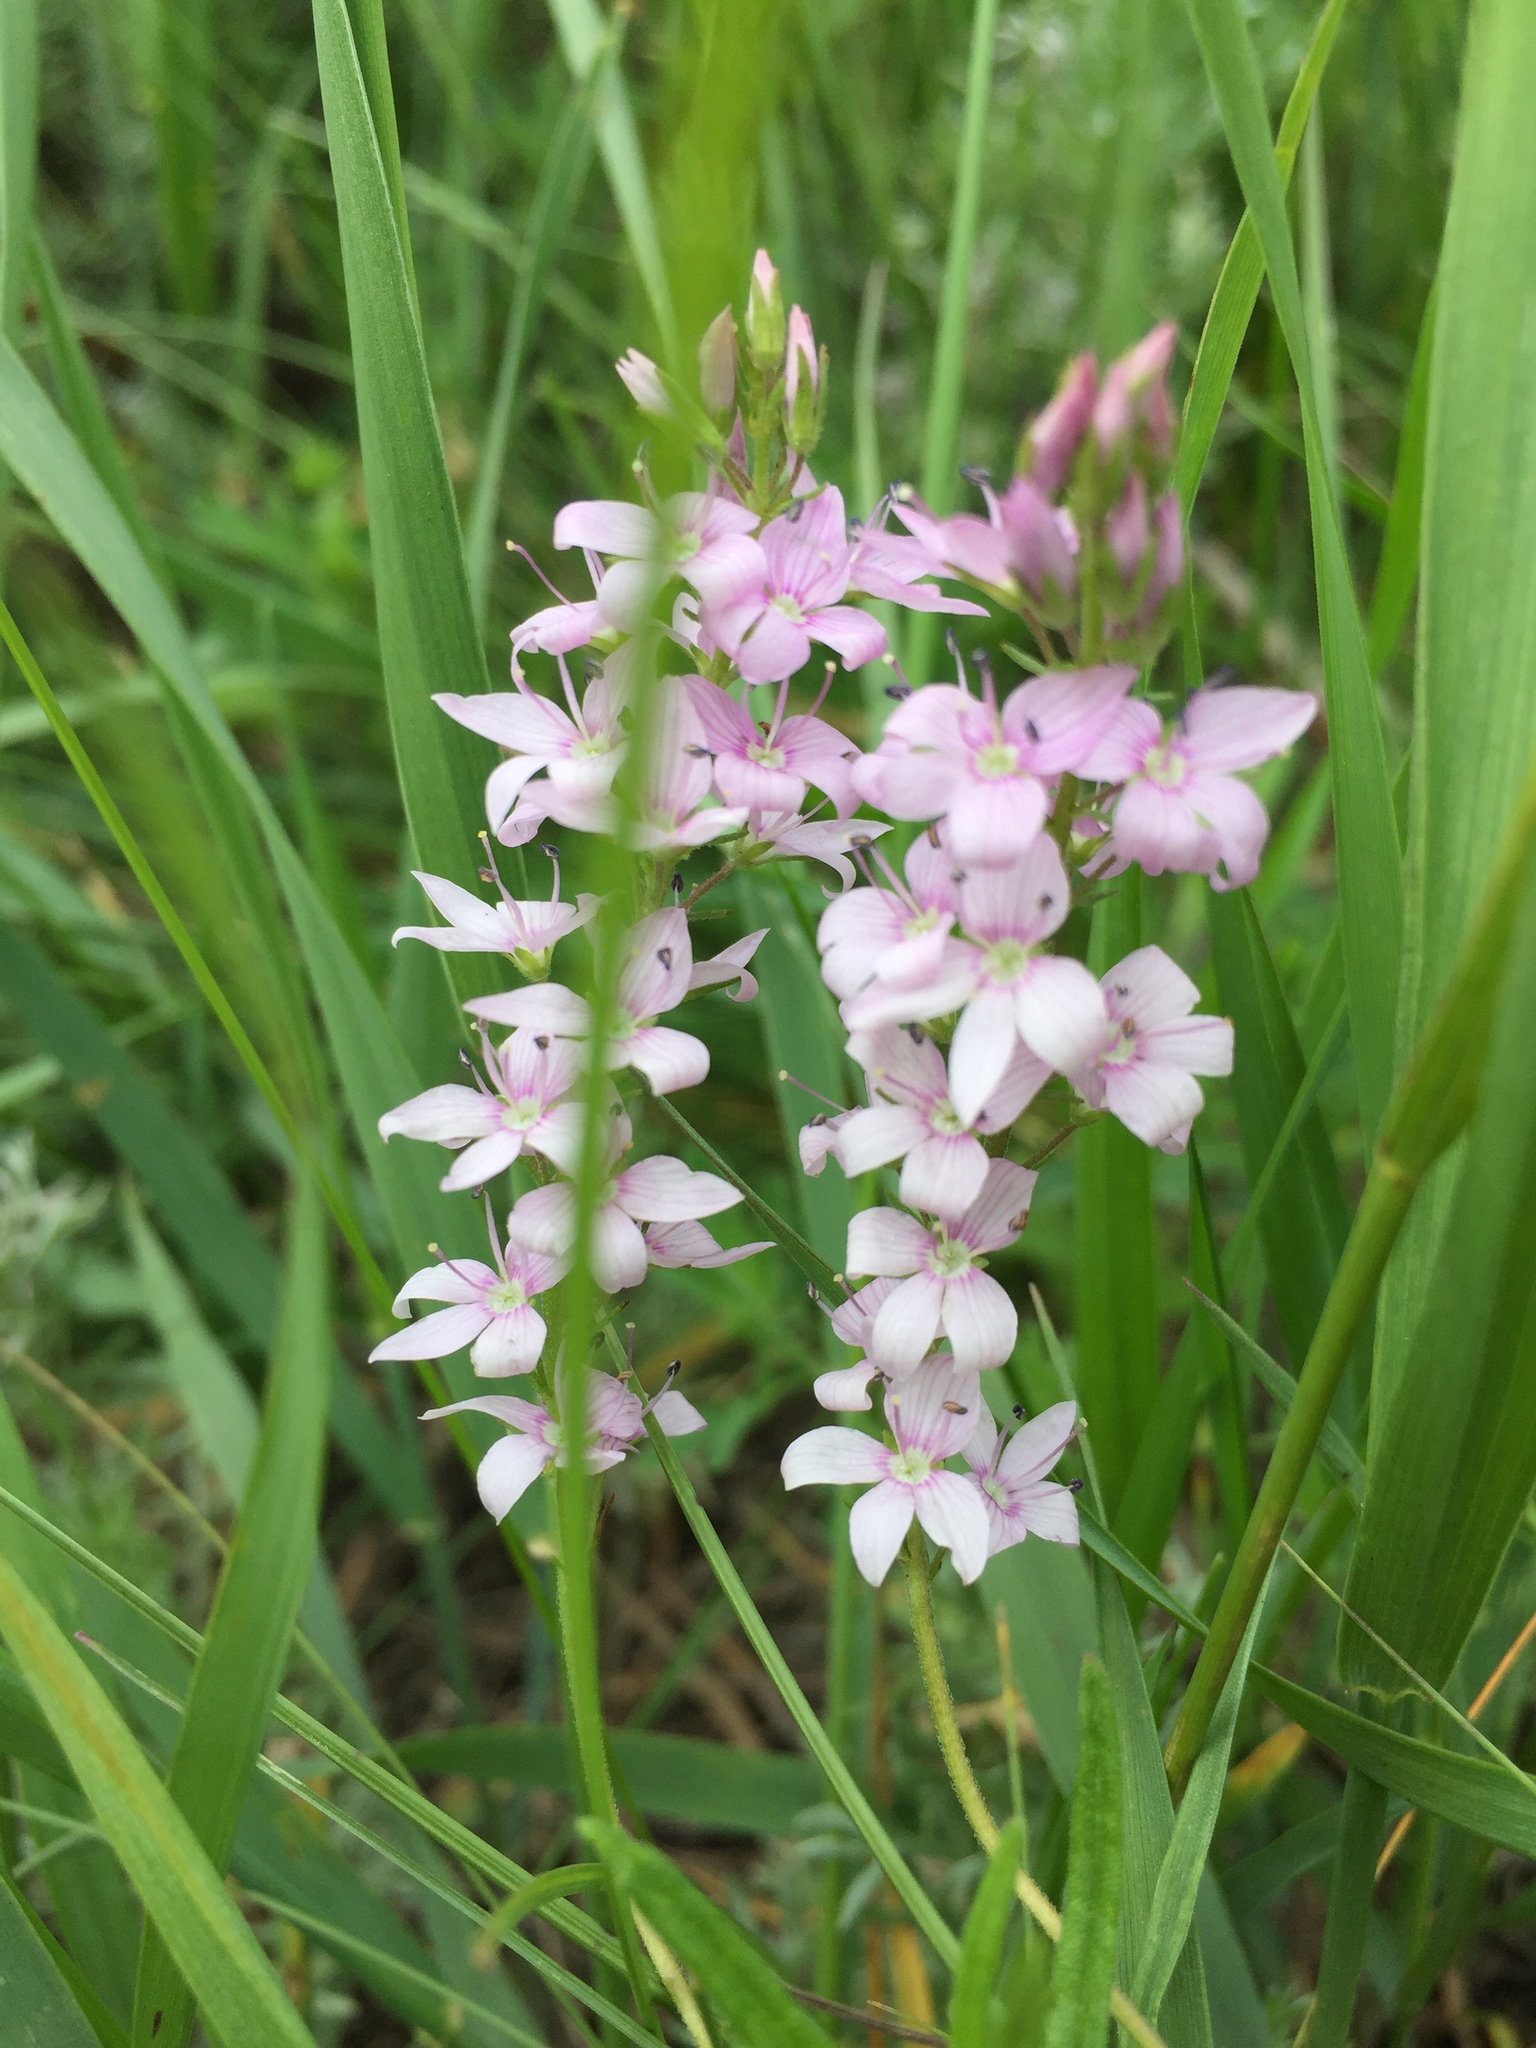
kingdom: Plantae
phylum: Tracheophyta
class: Magnoliopsida
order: Lamiales
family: Plantaginaceae
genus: Veronica
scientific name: Veronica austriaca
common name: Large speedwell
